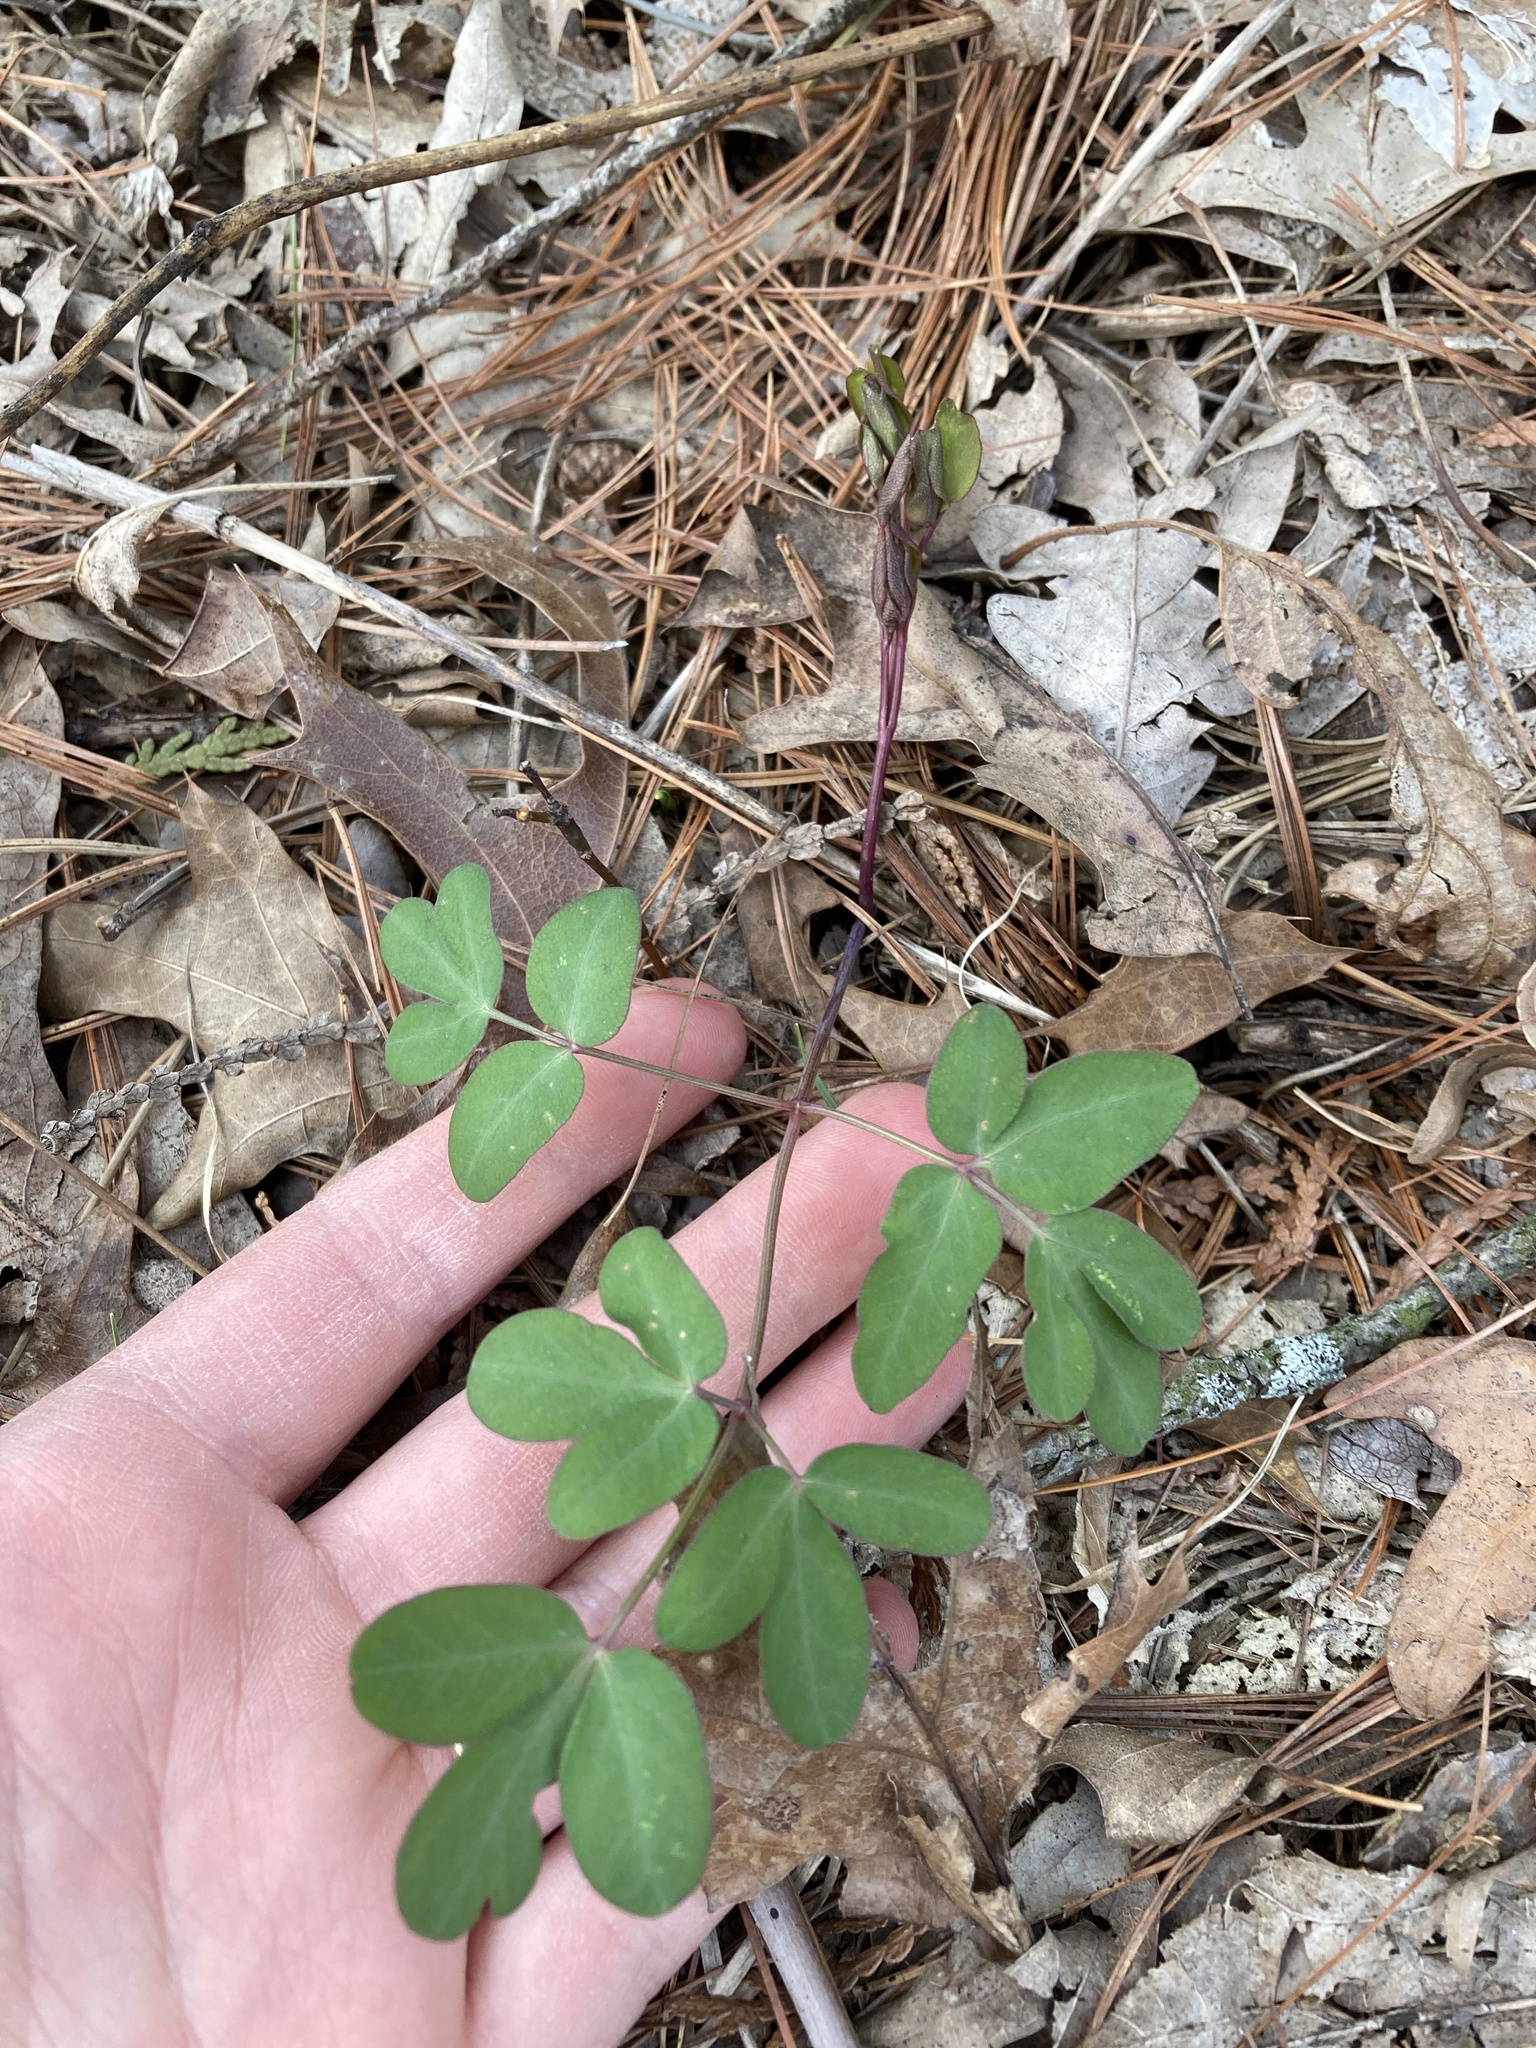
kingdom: Plantae
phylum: Tracheophyta
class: Magnoliopsida
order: Apiales
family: Apiaceae
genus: Taenidia
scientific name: Taenidia integerrima
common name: Golden alexander
